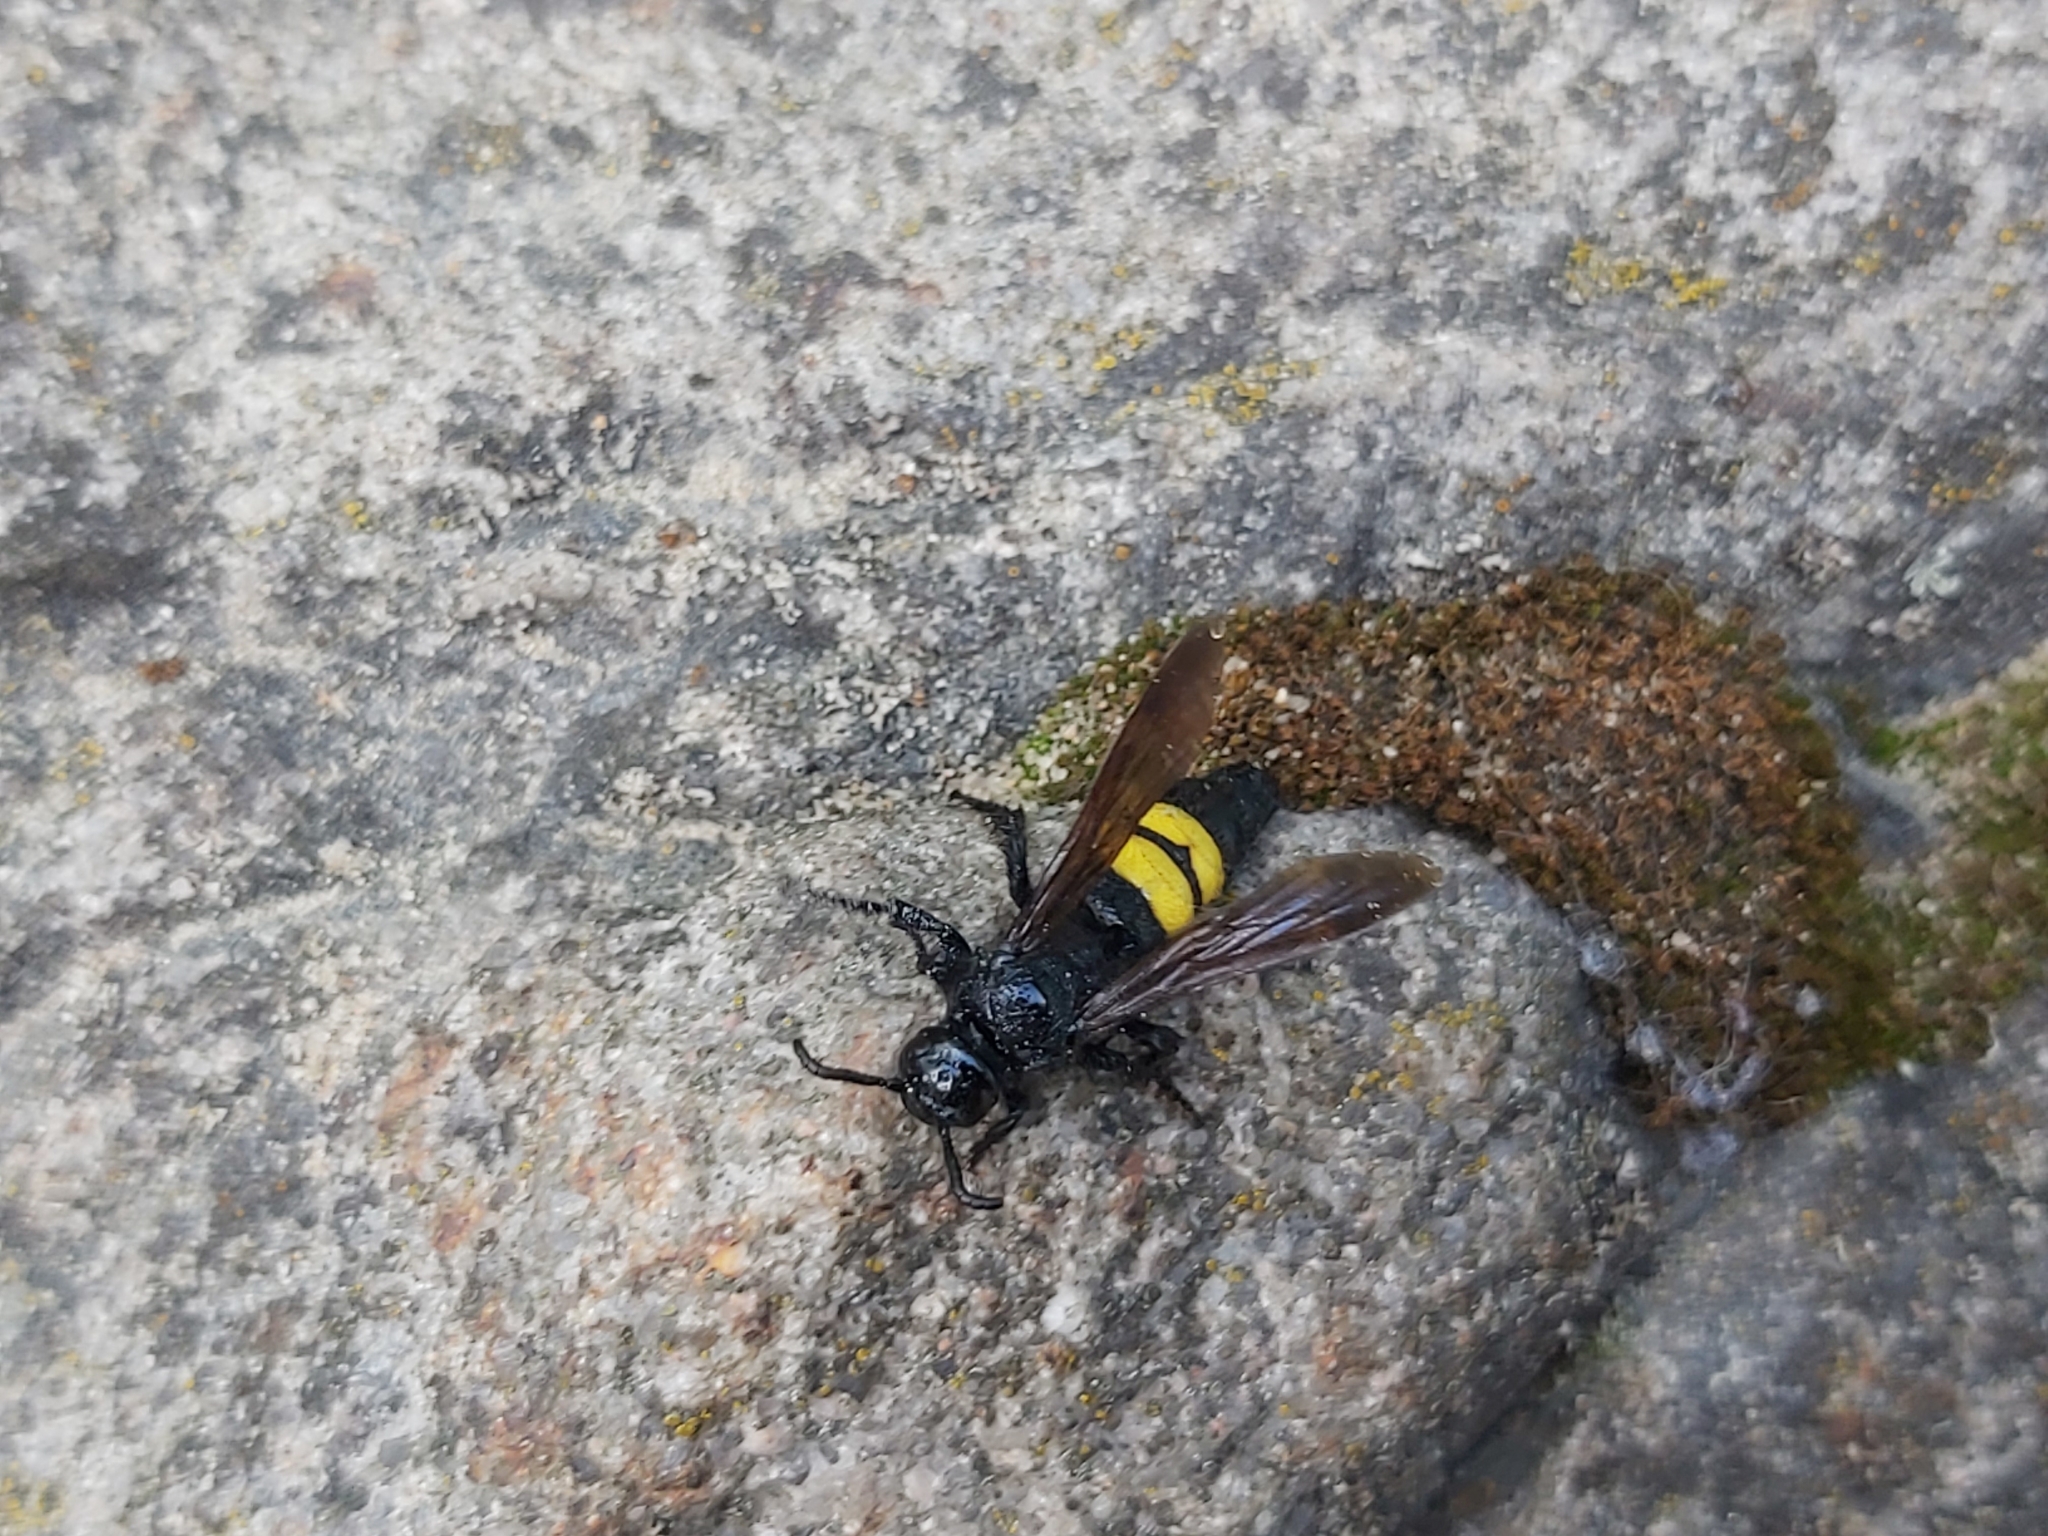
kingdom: Animalia
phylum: Arthropoda
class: Insecta
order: Hymenoptera
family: Scoliidae
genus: Scolia
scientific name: Scolia hirta
